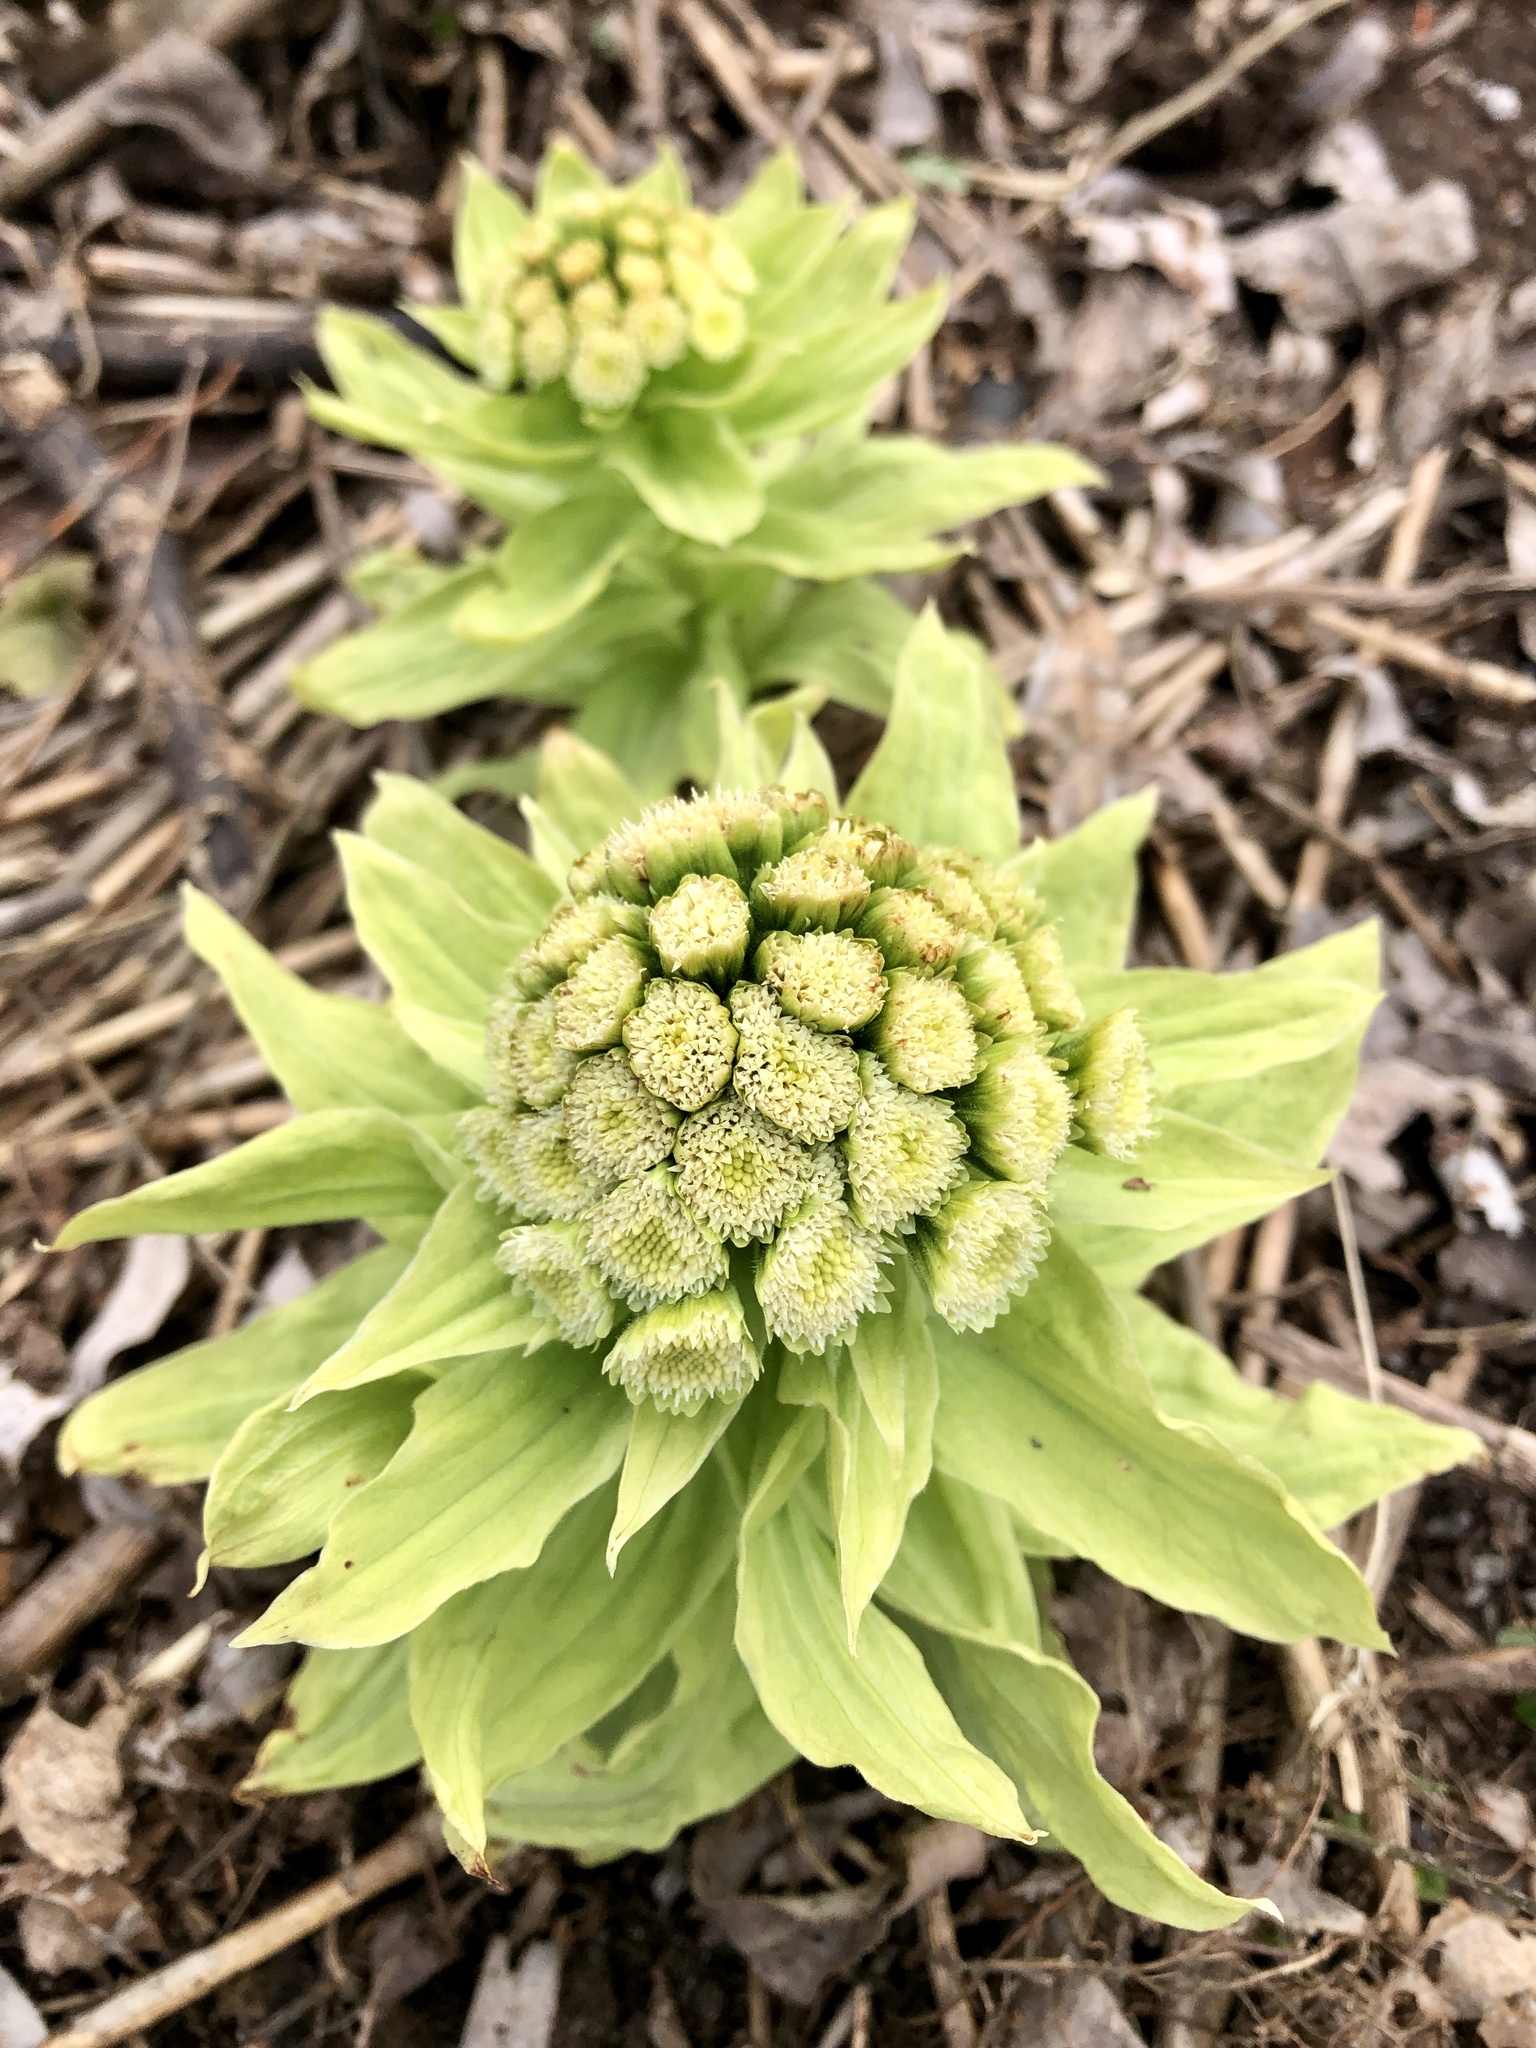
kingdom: Plantae
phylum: Tracheophyta
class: Magnoliopsida
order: Asterales
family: Asteraceae
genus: Petasites
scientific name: Petasites japonicus
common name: Giant butterbur
